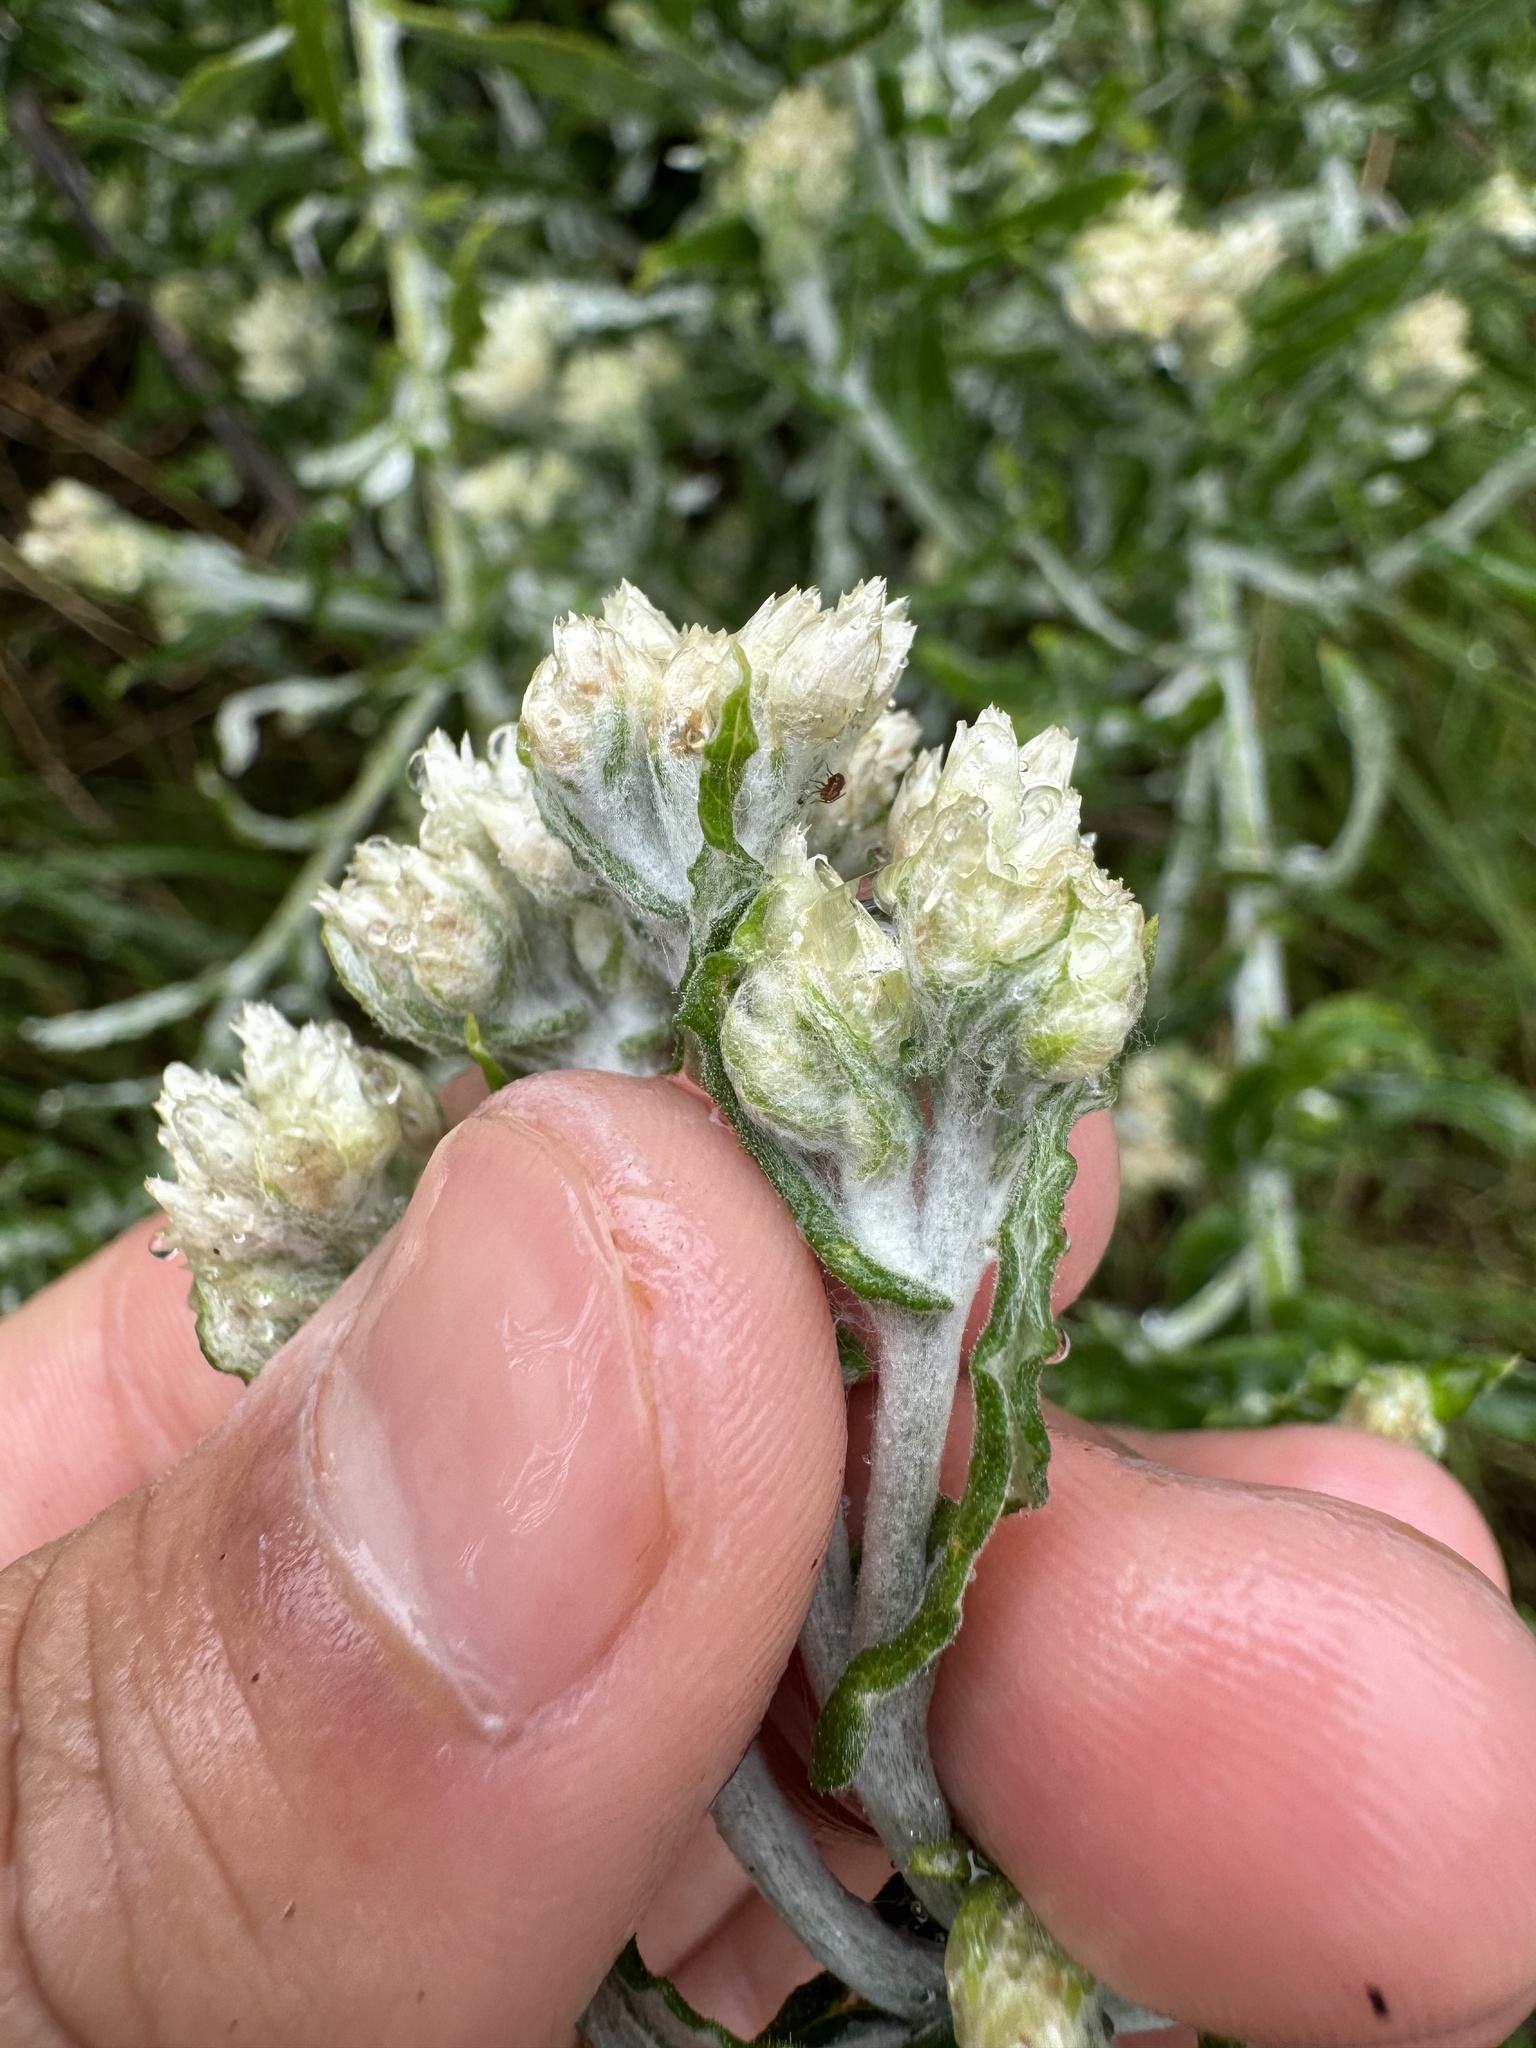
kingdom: Plantae
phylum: Tracheophyta
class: Magnoliopsida
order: Asterales
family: Asteraceae
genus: Pseudognaphalium
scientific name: Pseudognaphalium biolettii
